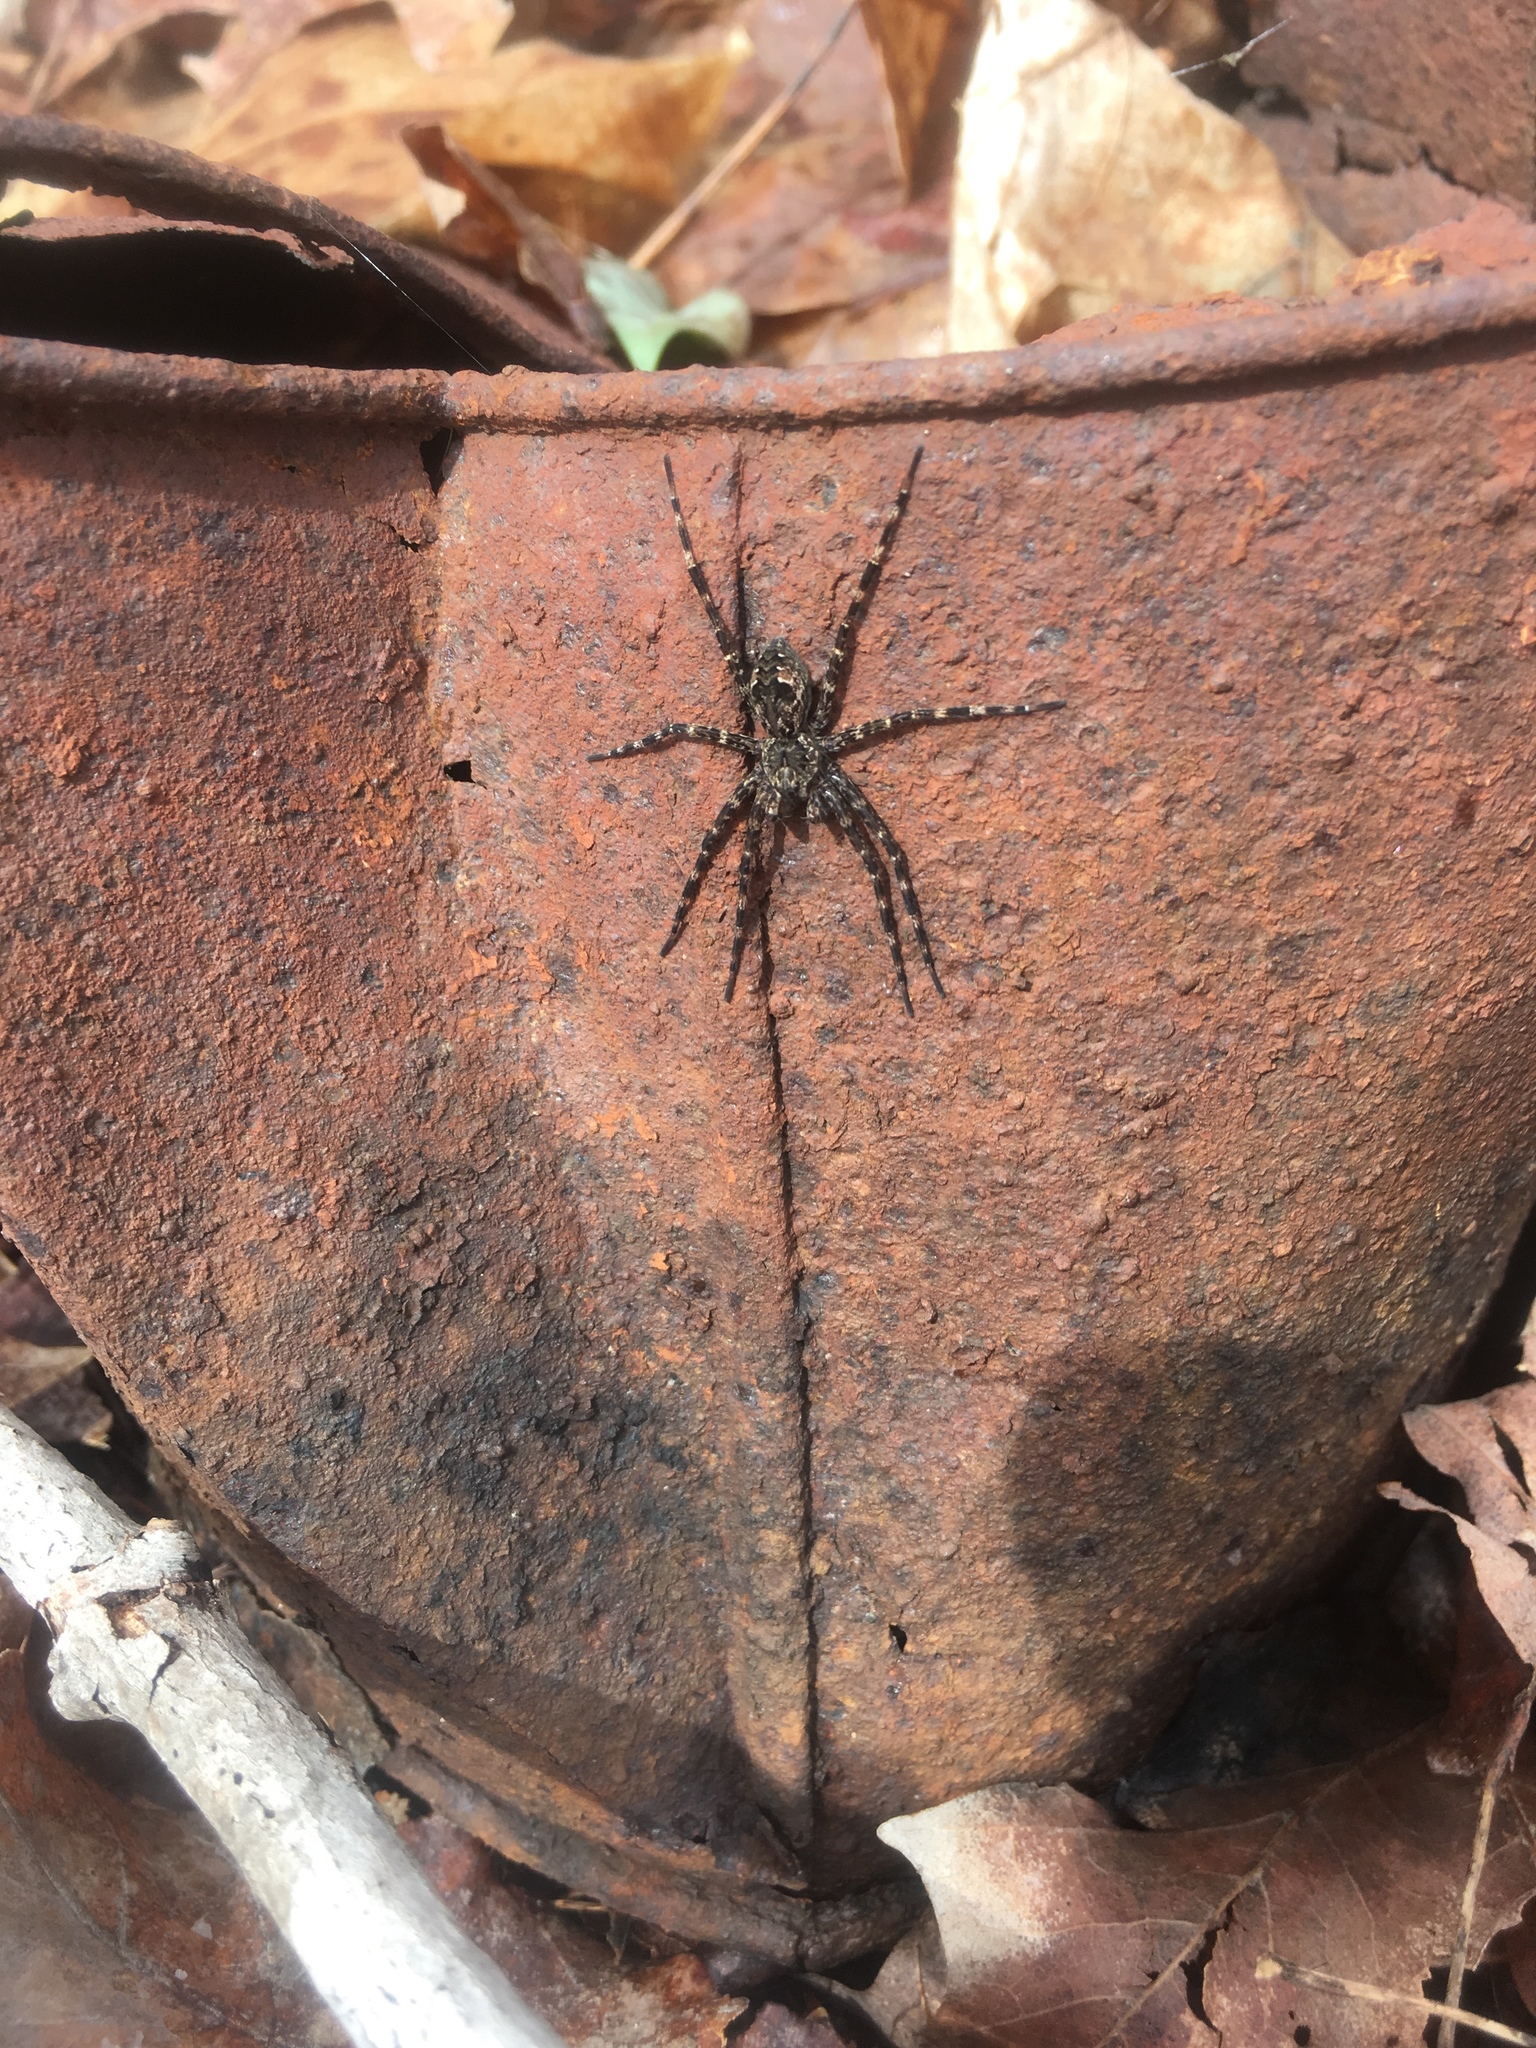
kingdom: Animalia
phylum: Arthropoda
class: Arachnida
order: Araneae
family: Pisauridae
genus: Dolomedes
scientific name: Dolomedes tenebrosus
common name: Dark fishing spider
